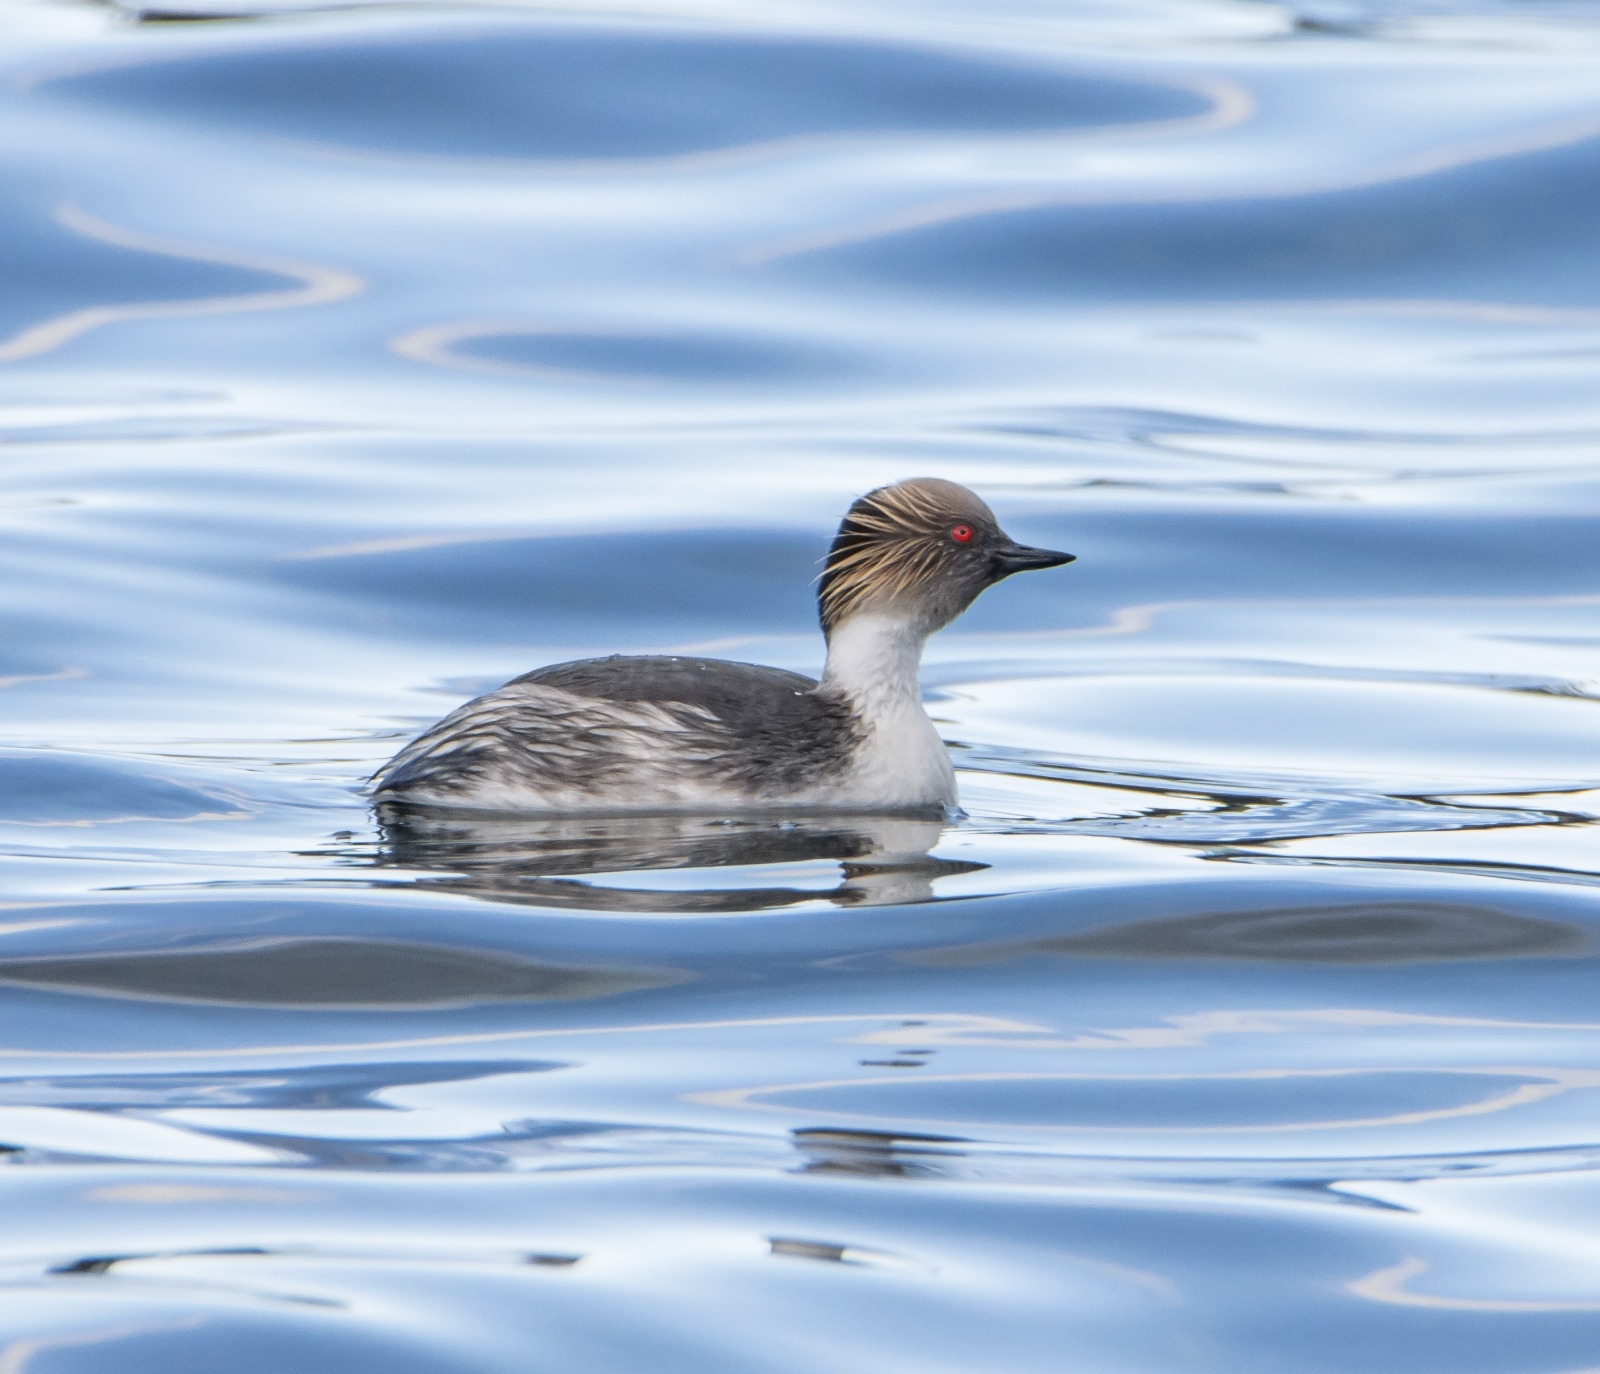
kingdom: Animalia
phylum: Chordata
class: Aves
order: Podicipediformes
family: Podicipedidae
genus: Podiceps
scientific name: Podiceps occipitalis
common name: Silvery grebe
